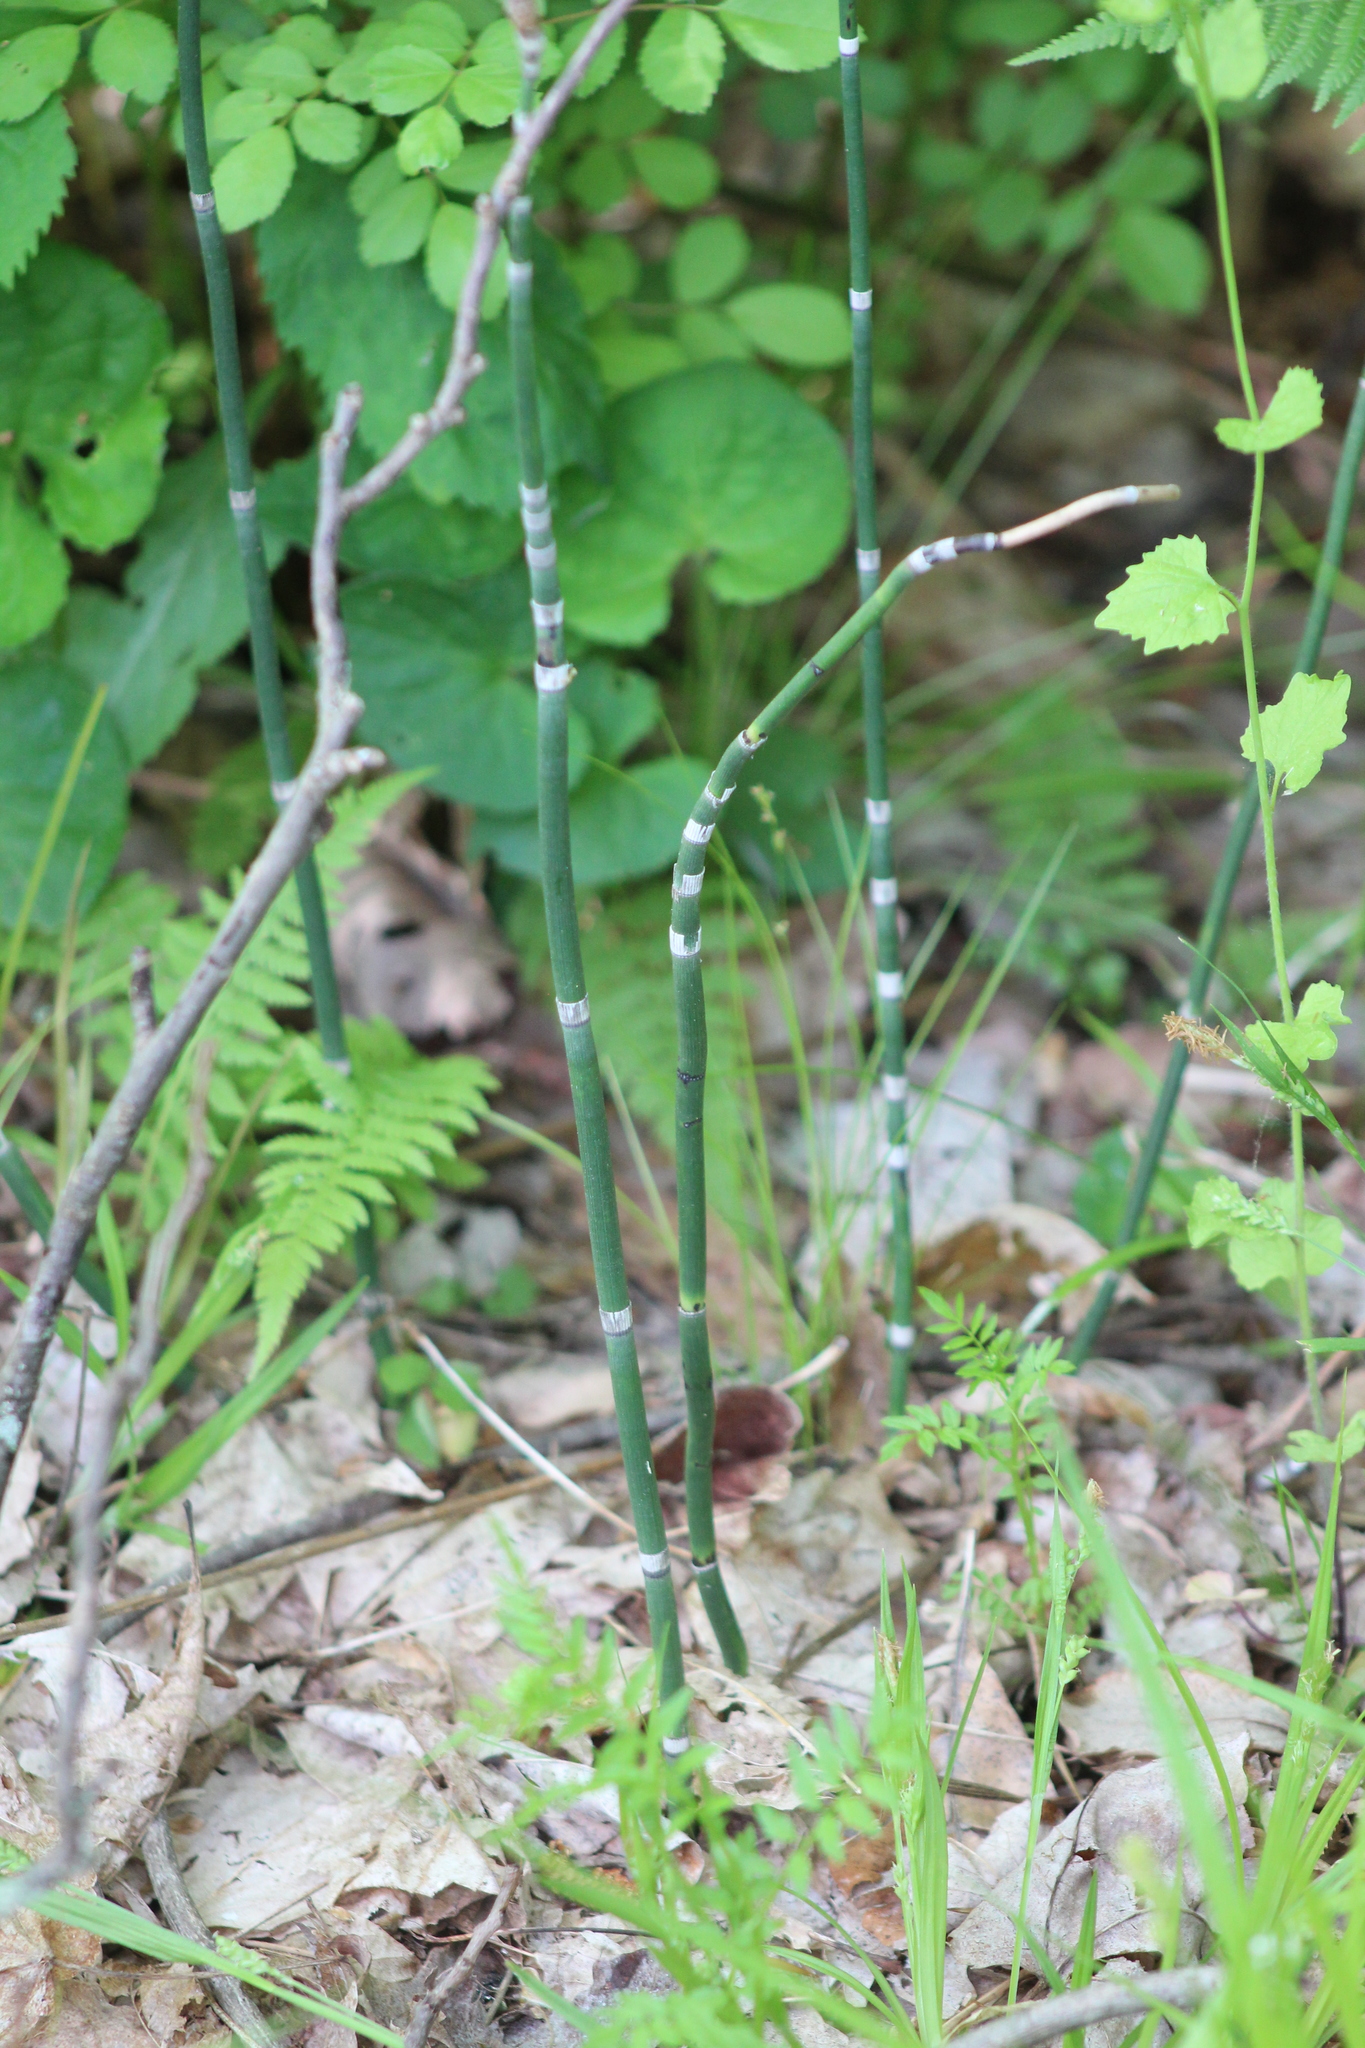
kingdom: Plantae
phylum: Tracheophyta
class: Polypodiopsida
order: Equisetales
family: Equisetaceae
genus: Equisetum
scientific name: Equisetum praealtum
